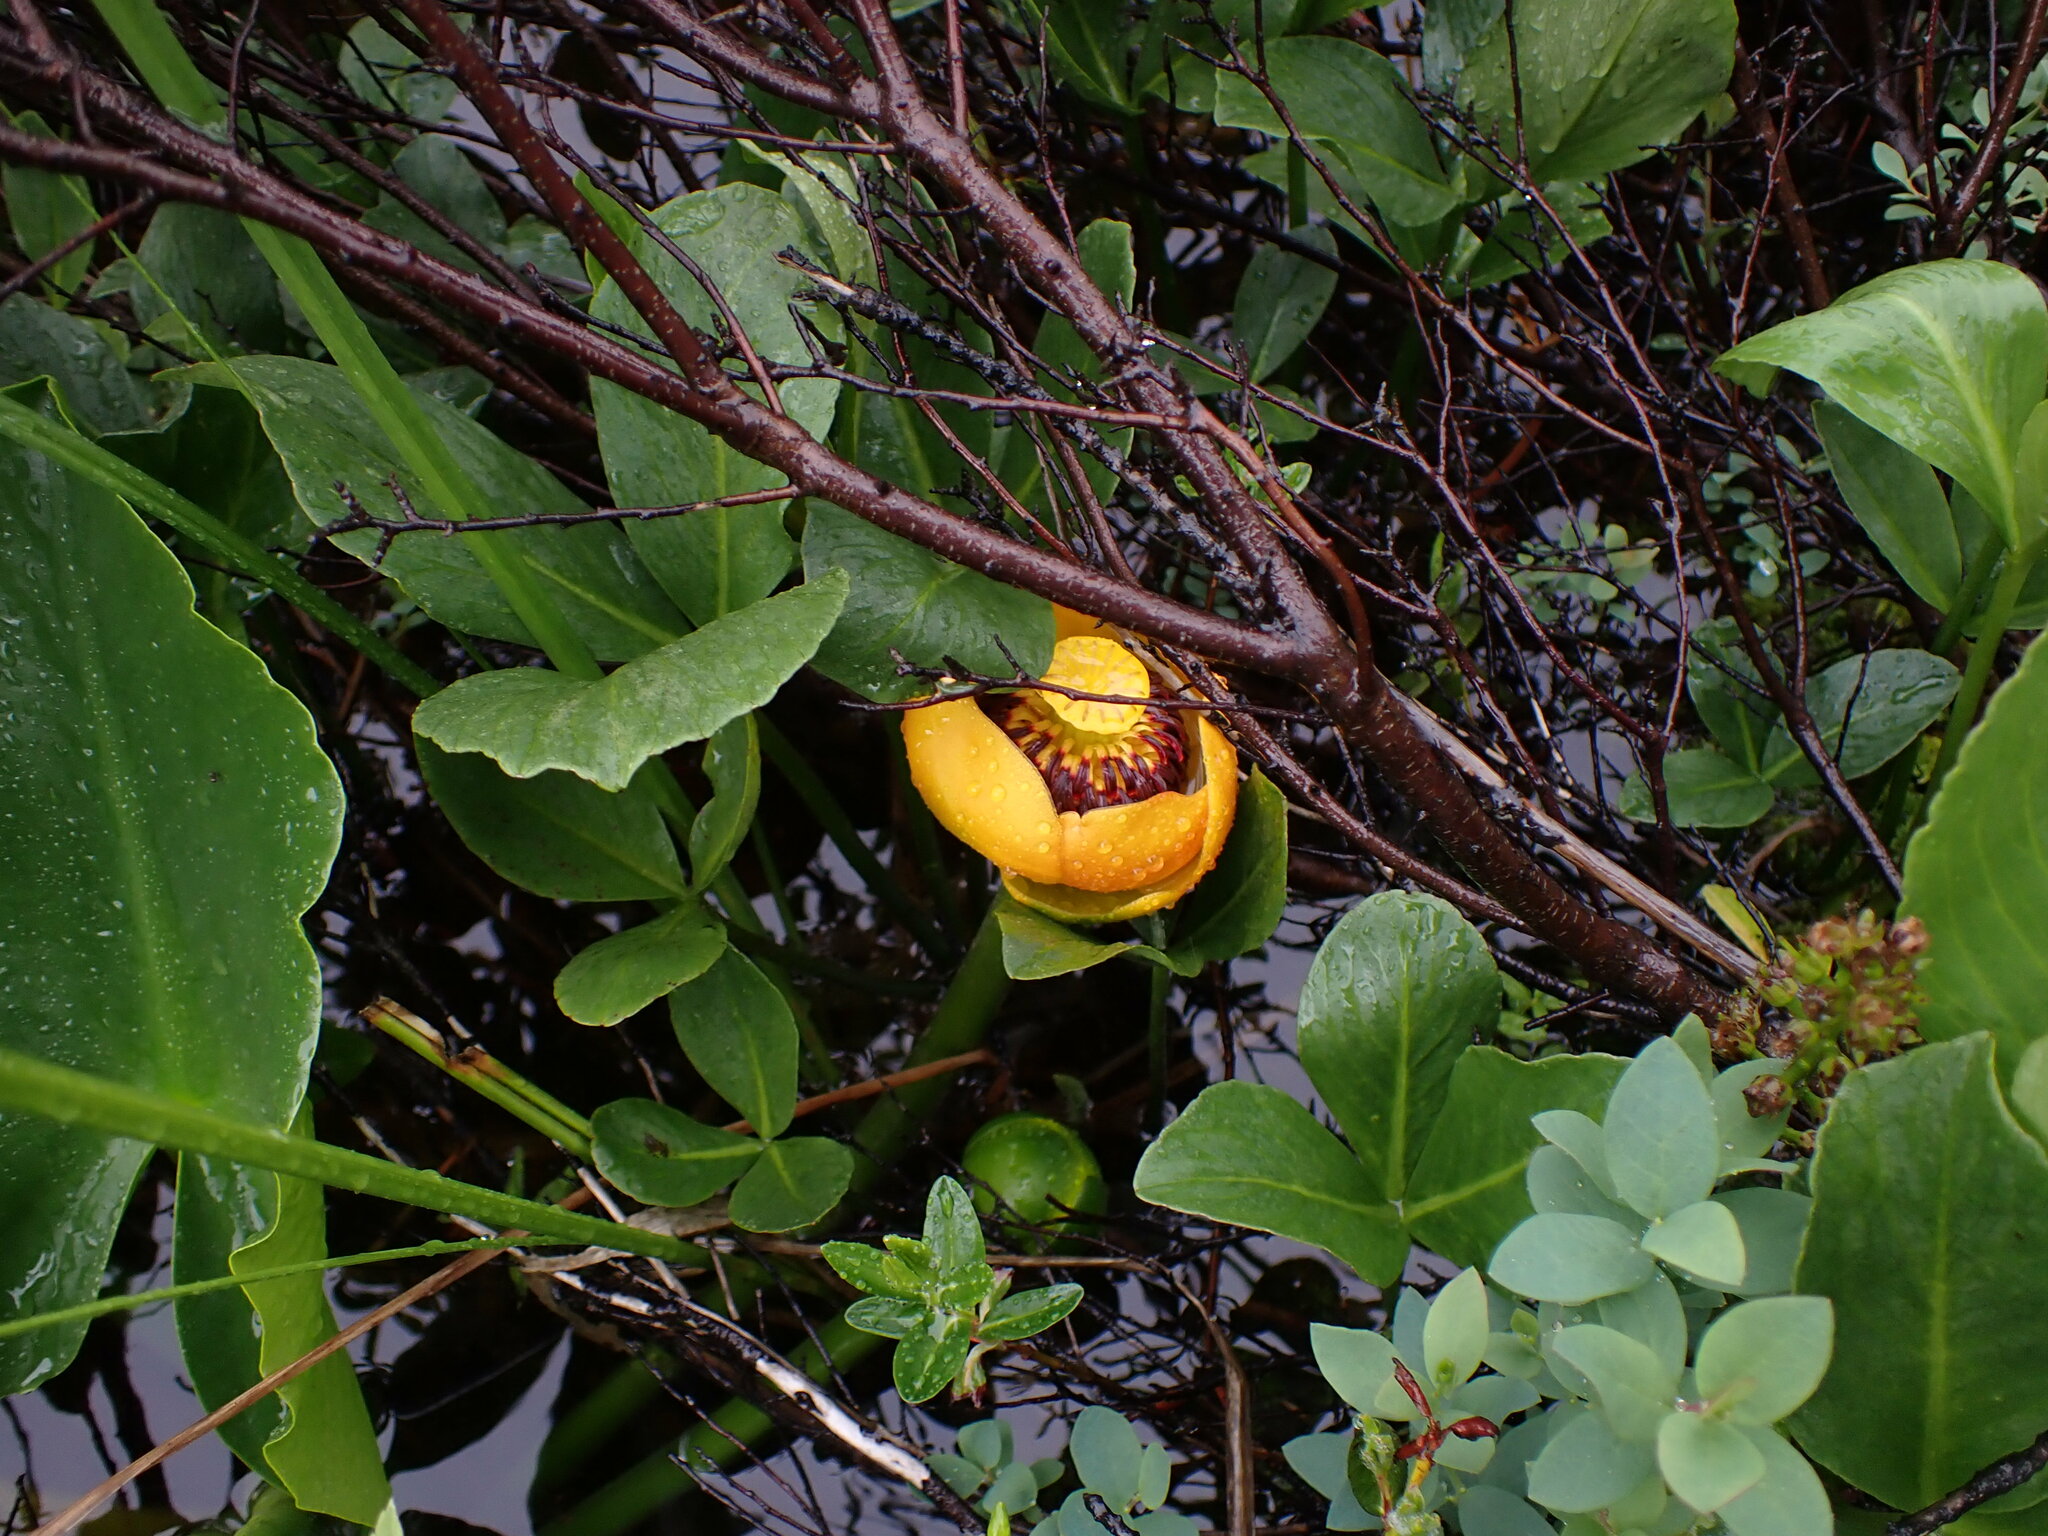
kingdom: Plantae
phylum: Tracheophyta
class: Magnoliopsida
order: Nymphaeales
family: Nymphaeaceae
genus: Nuphar
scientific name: Nuphar polysepala
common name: Rocky mountain cow-lily
